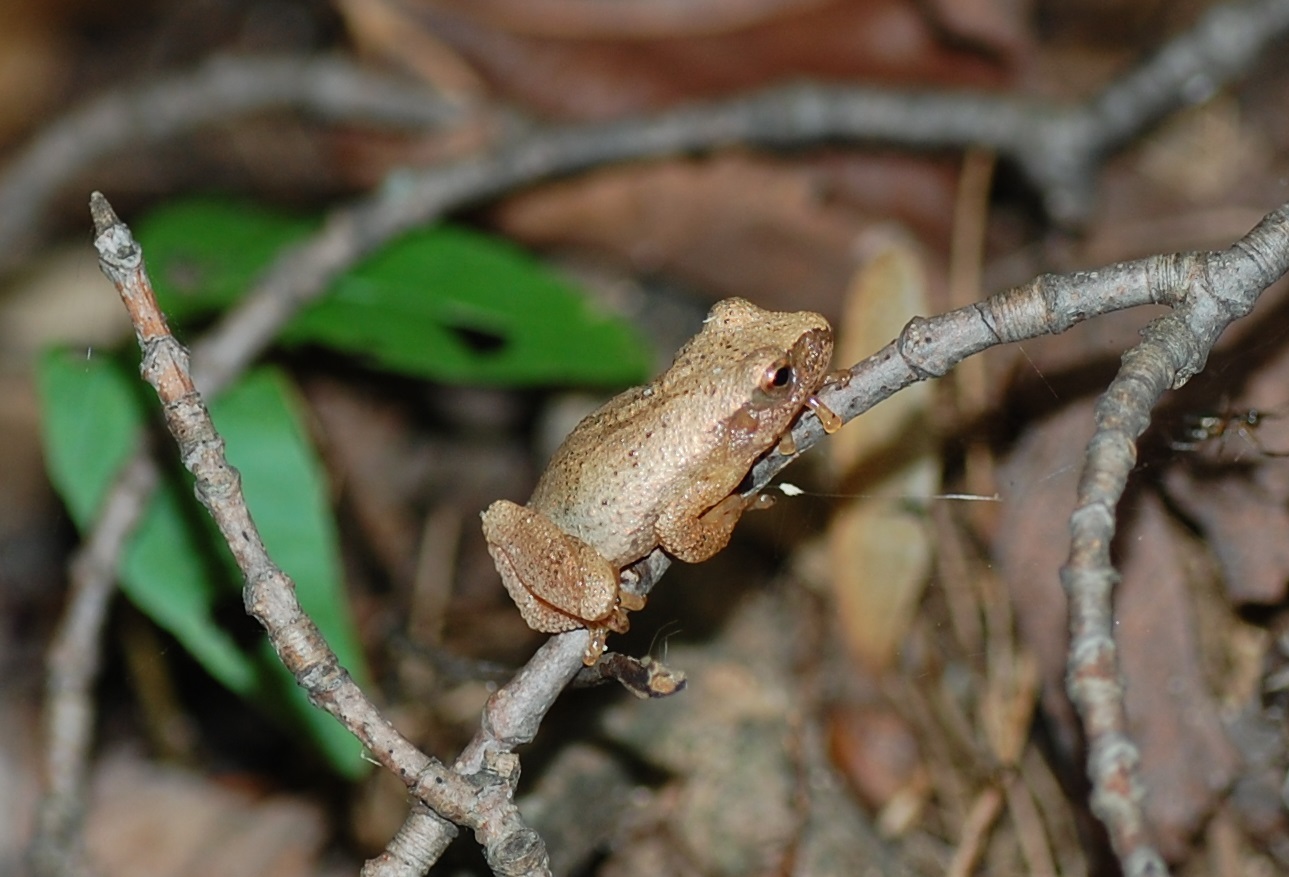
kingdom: Animalia
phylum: Chordata
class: Amphibia
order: Anura
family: Hylidae
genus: Pseudacris
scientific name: Pseudacris crucifer
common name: Spring peeper
